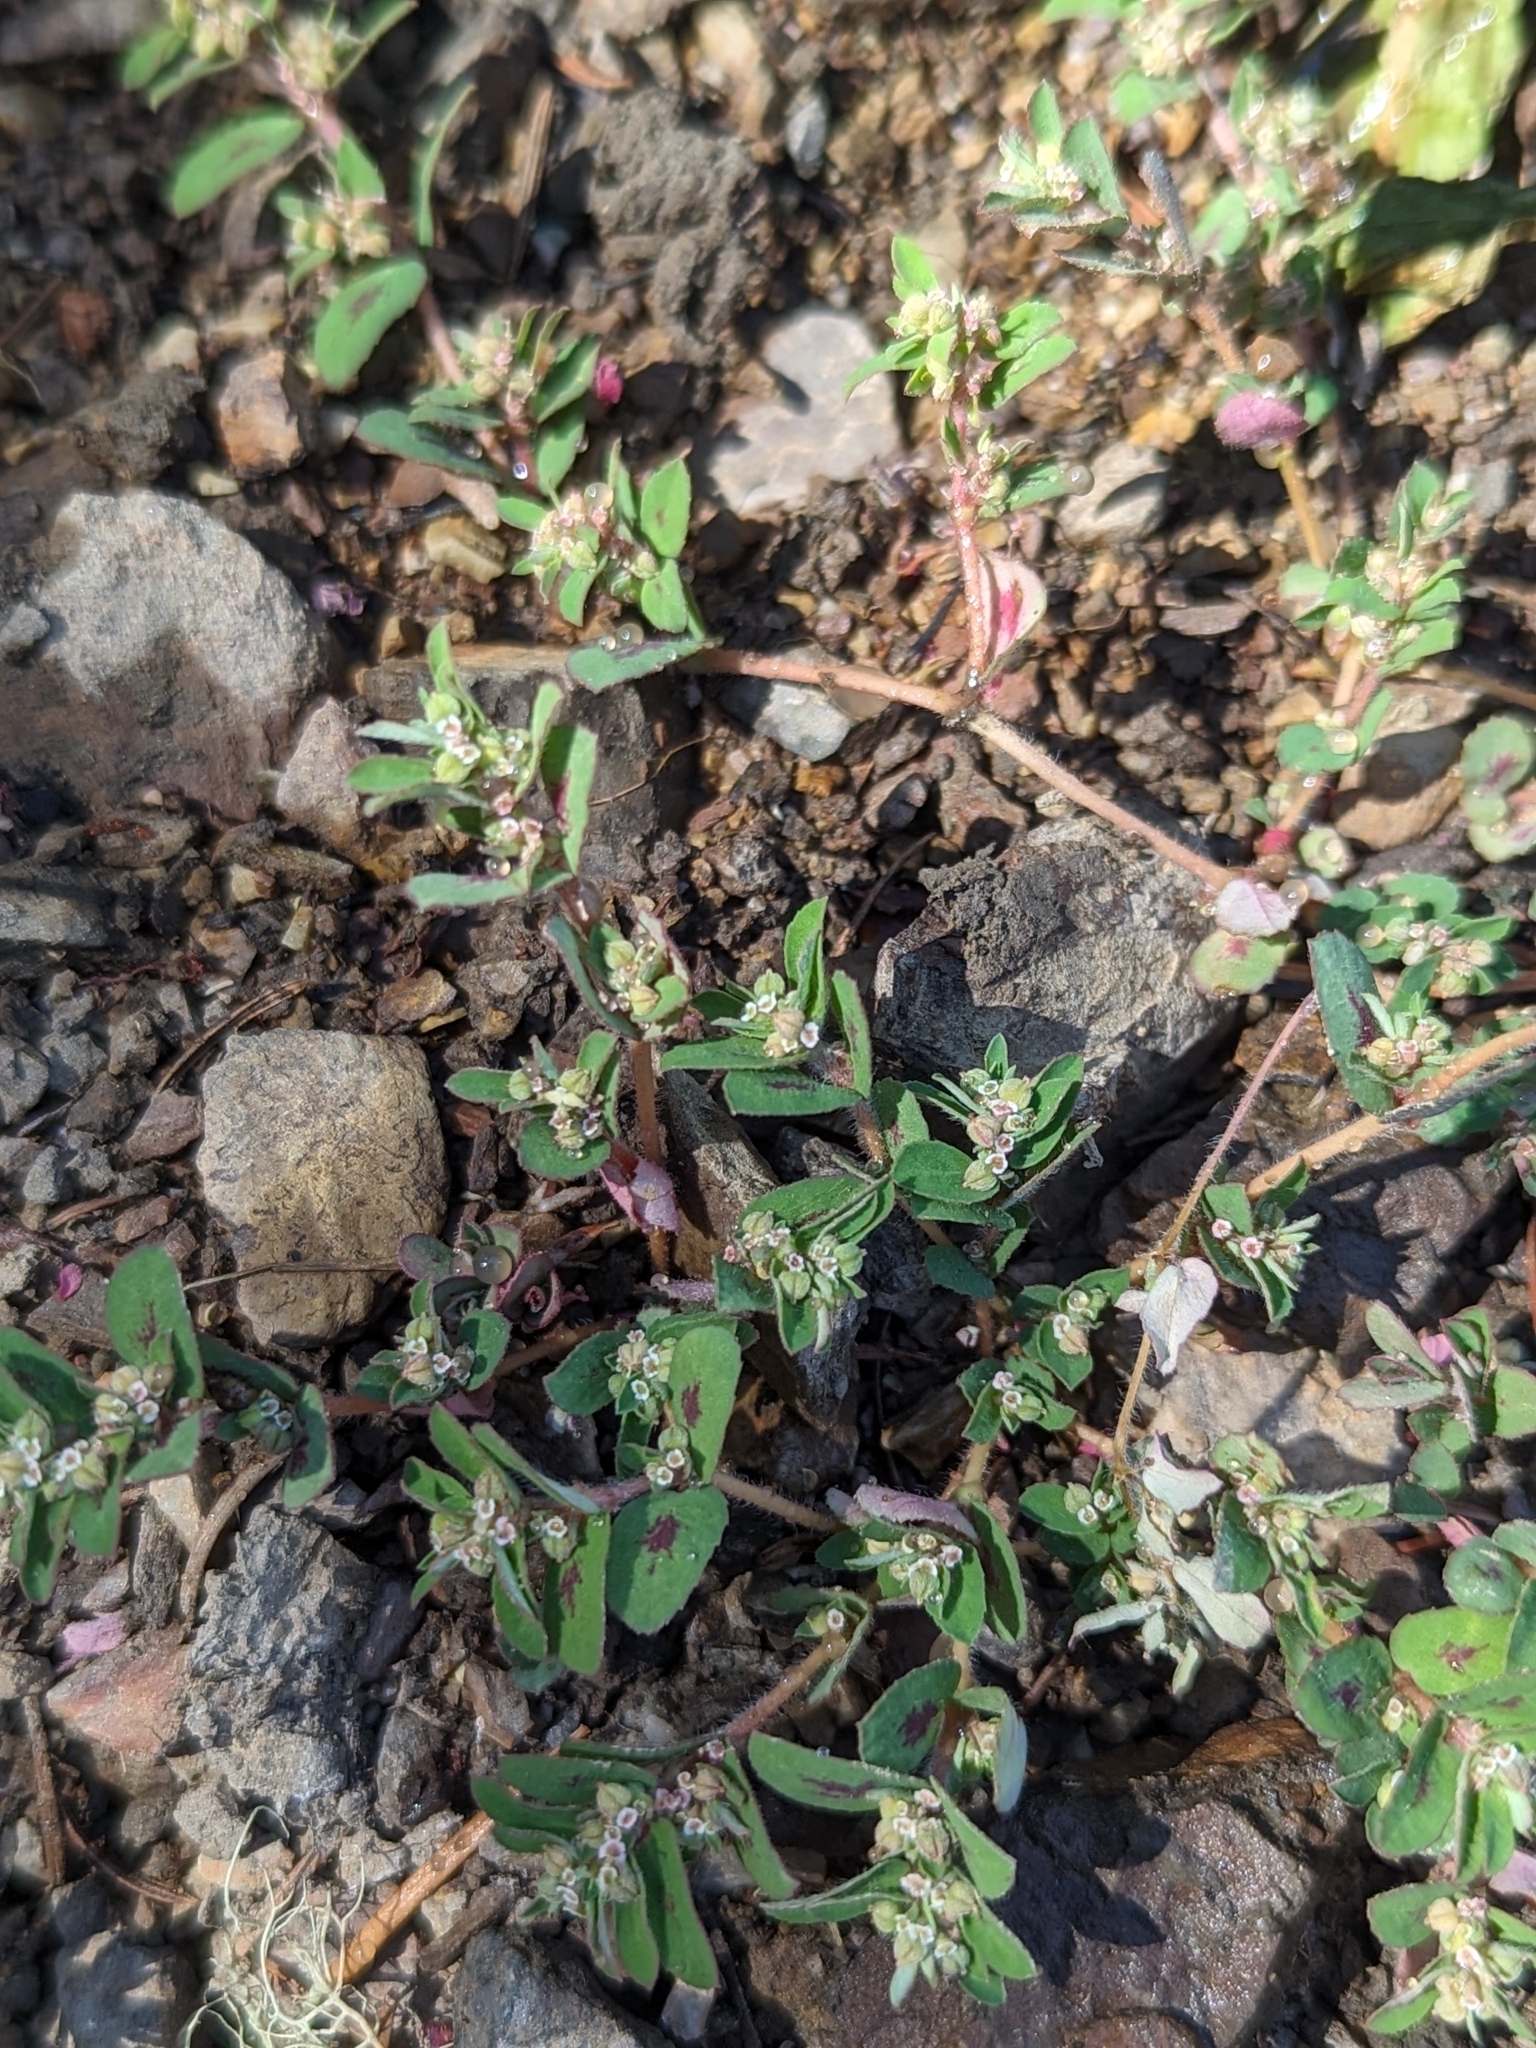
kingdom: Plantae
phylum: Tracheophyta
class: Magnoliopsida
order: Malpighiales
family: Euphorbiaceae
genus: Euphorbia
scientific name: Euphorbia maculata
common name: Spotted spurge
